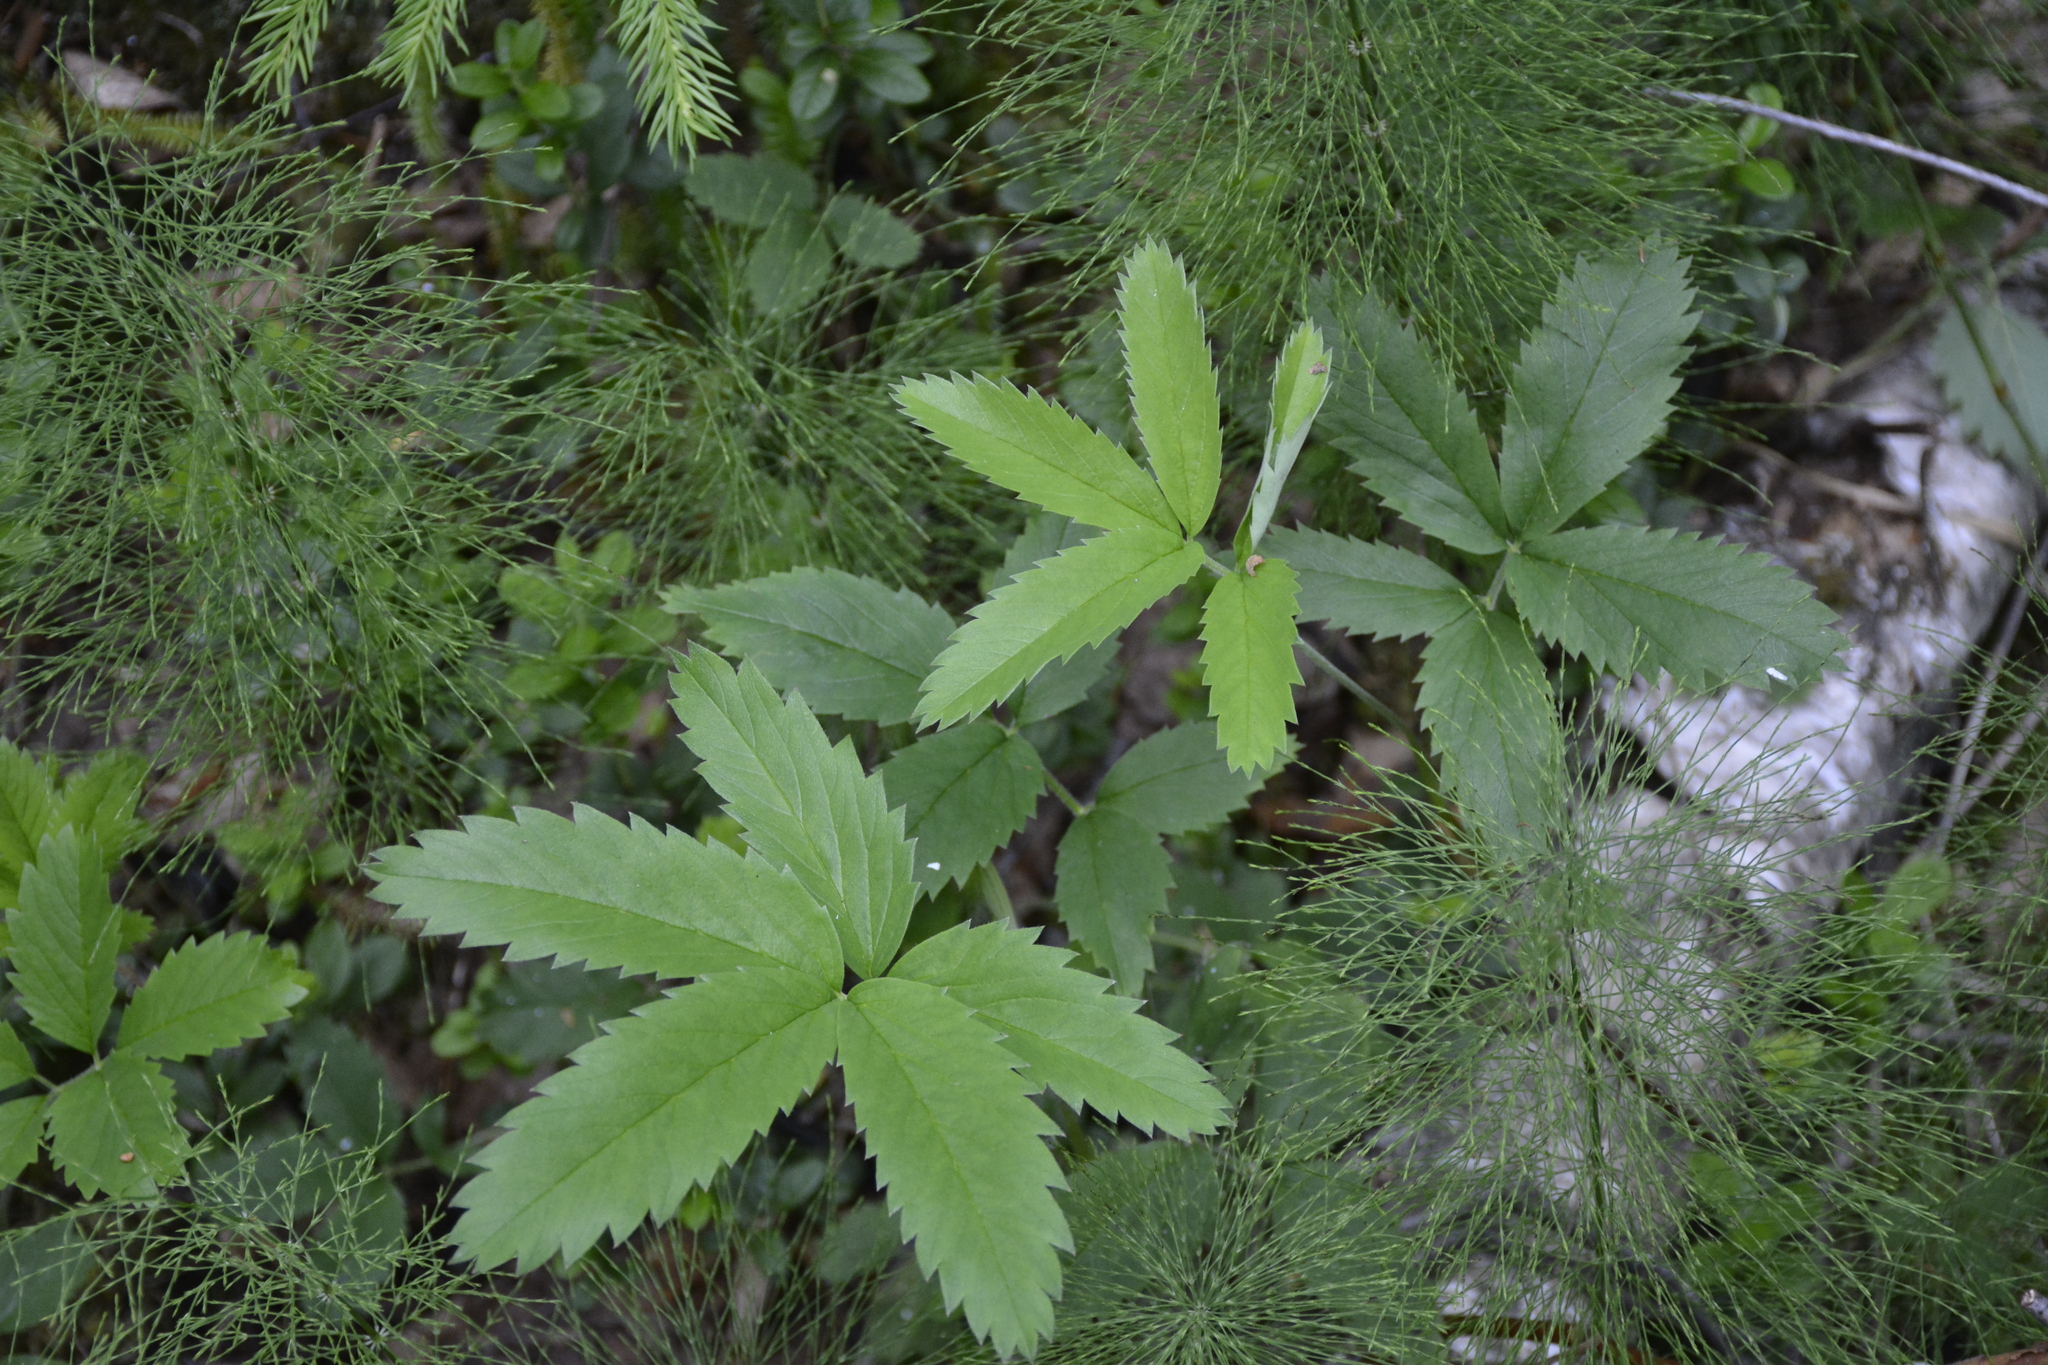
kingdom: Plantae
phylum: Tracheophyta
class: Magnoliopsida
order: Rosales
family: Rosaceae
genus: Comarum
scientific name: Comarum palustre
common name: Marsh cinquefoil
